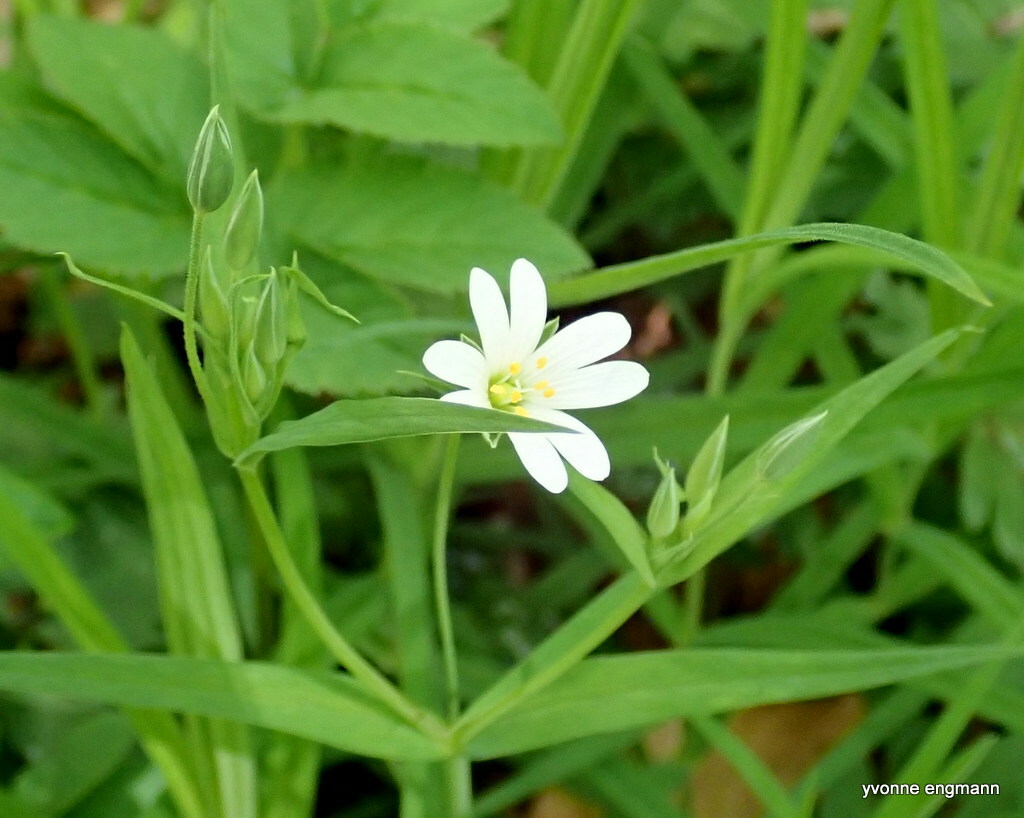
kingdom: Plantae
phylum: Tracheophyta
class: Magnoliopsida
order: Caryophyllales
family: Caryophyllaceae
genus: Rabelera
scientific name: Rabelera holostea
